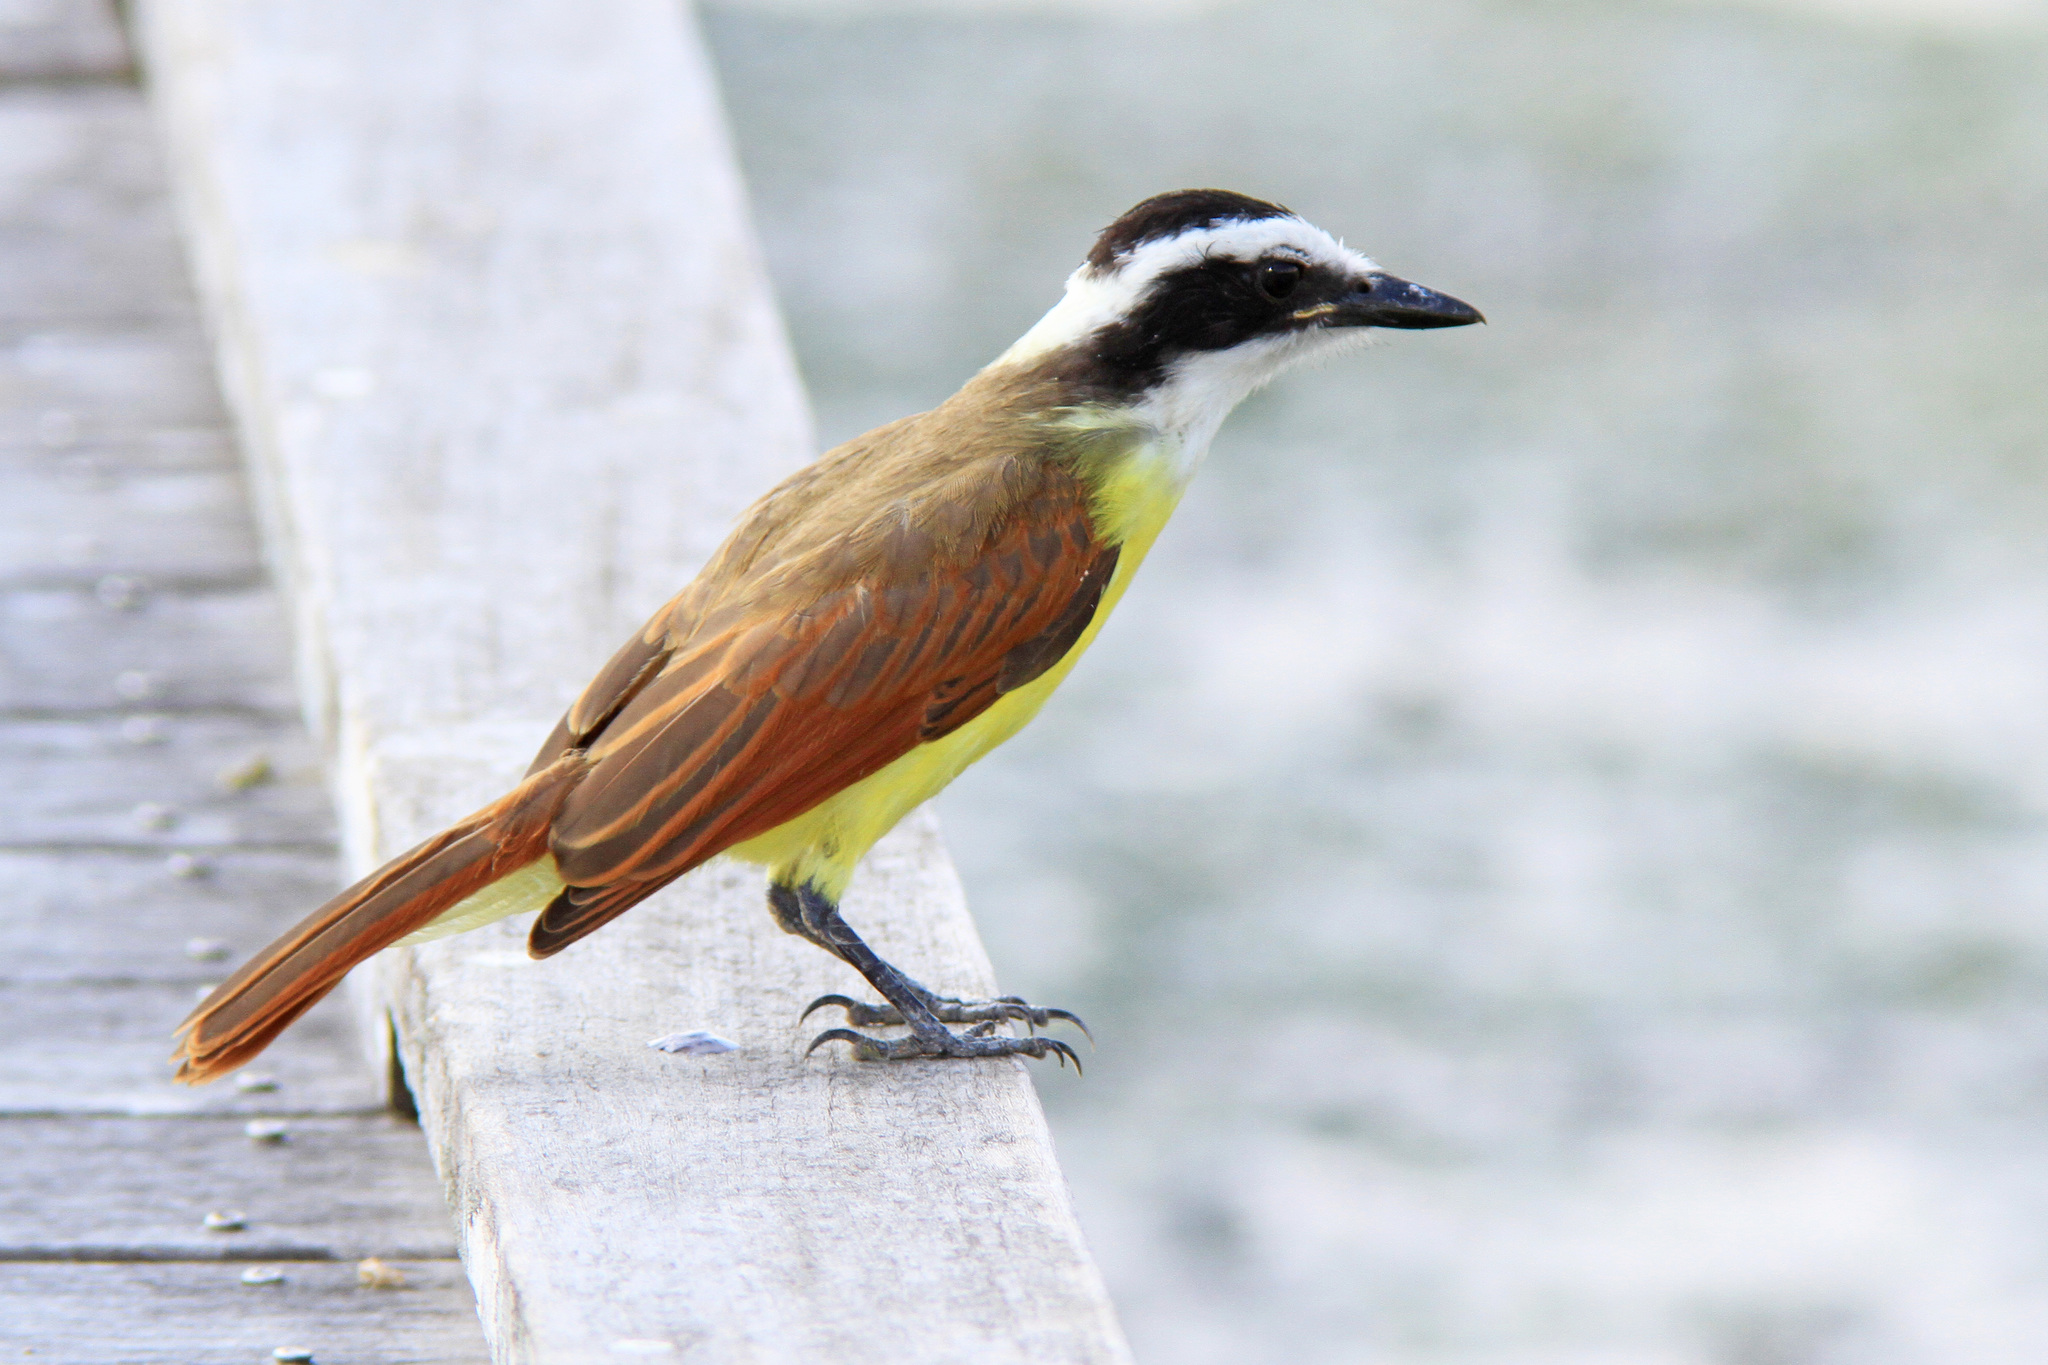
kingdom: Animalia
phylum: Chordata
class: Aves
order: Passeriformes
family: Tyrannidae
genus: Pitangus
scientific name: Pitangus sulphuratus
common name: Great kiskadee
